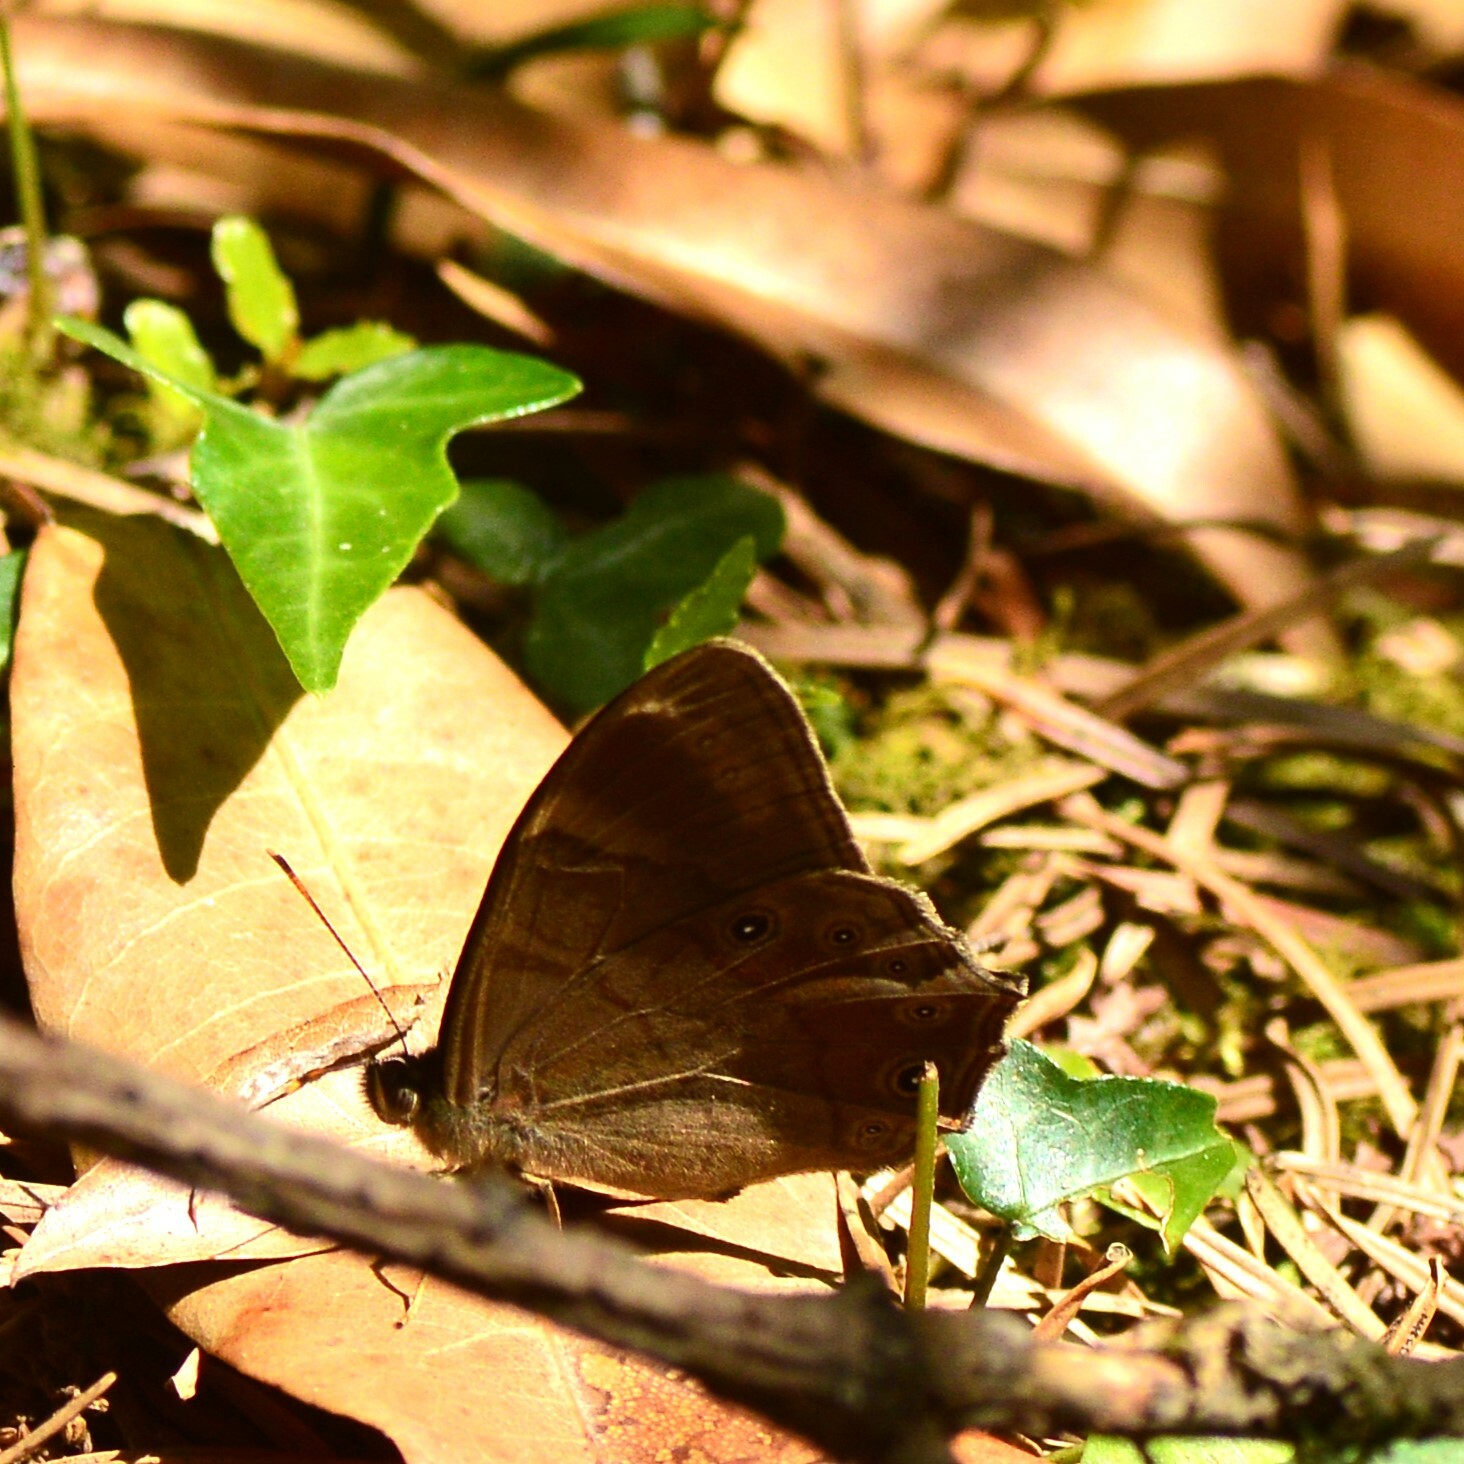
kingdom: Animalia
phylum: Arthropoda
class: Insecta
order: Lepidoptera
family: Nymphalidae
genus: Lethe
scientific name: Lethe
